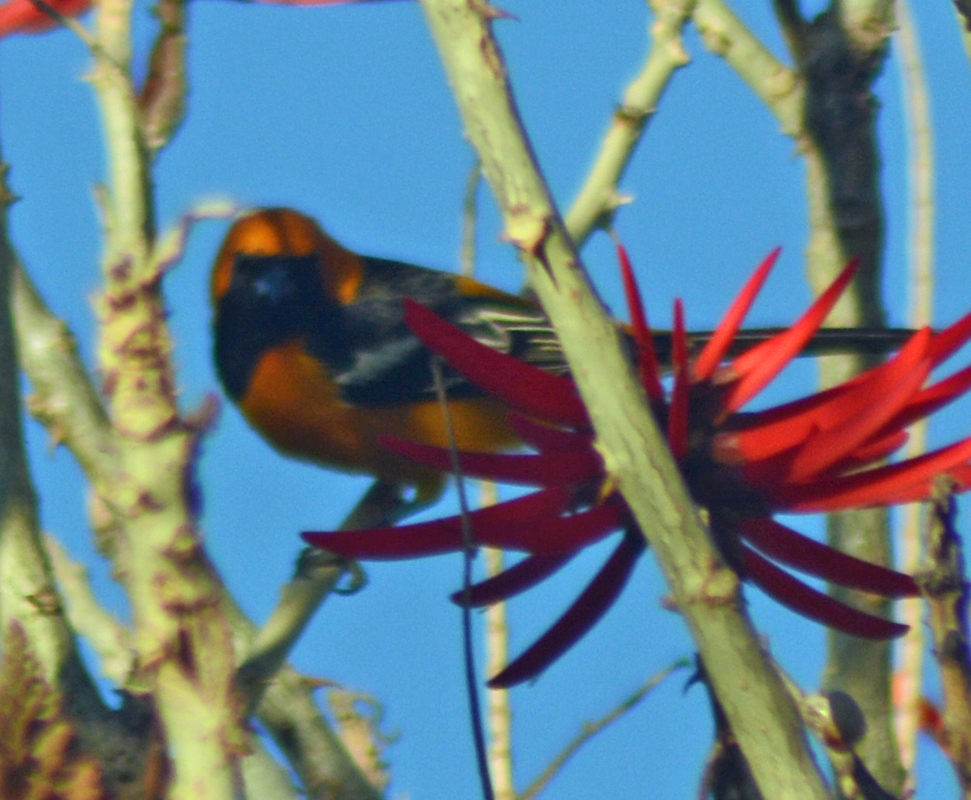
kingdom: Animalia
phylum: Chordata
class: Aves
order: Passeriformes
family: Icteridae
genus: Icterus
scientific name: Icterus cucullatus
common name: Hooded oriole
